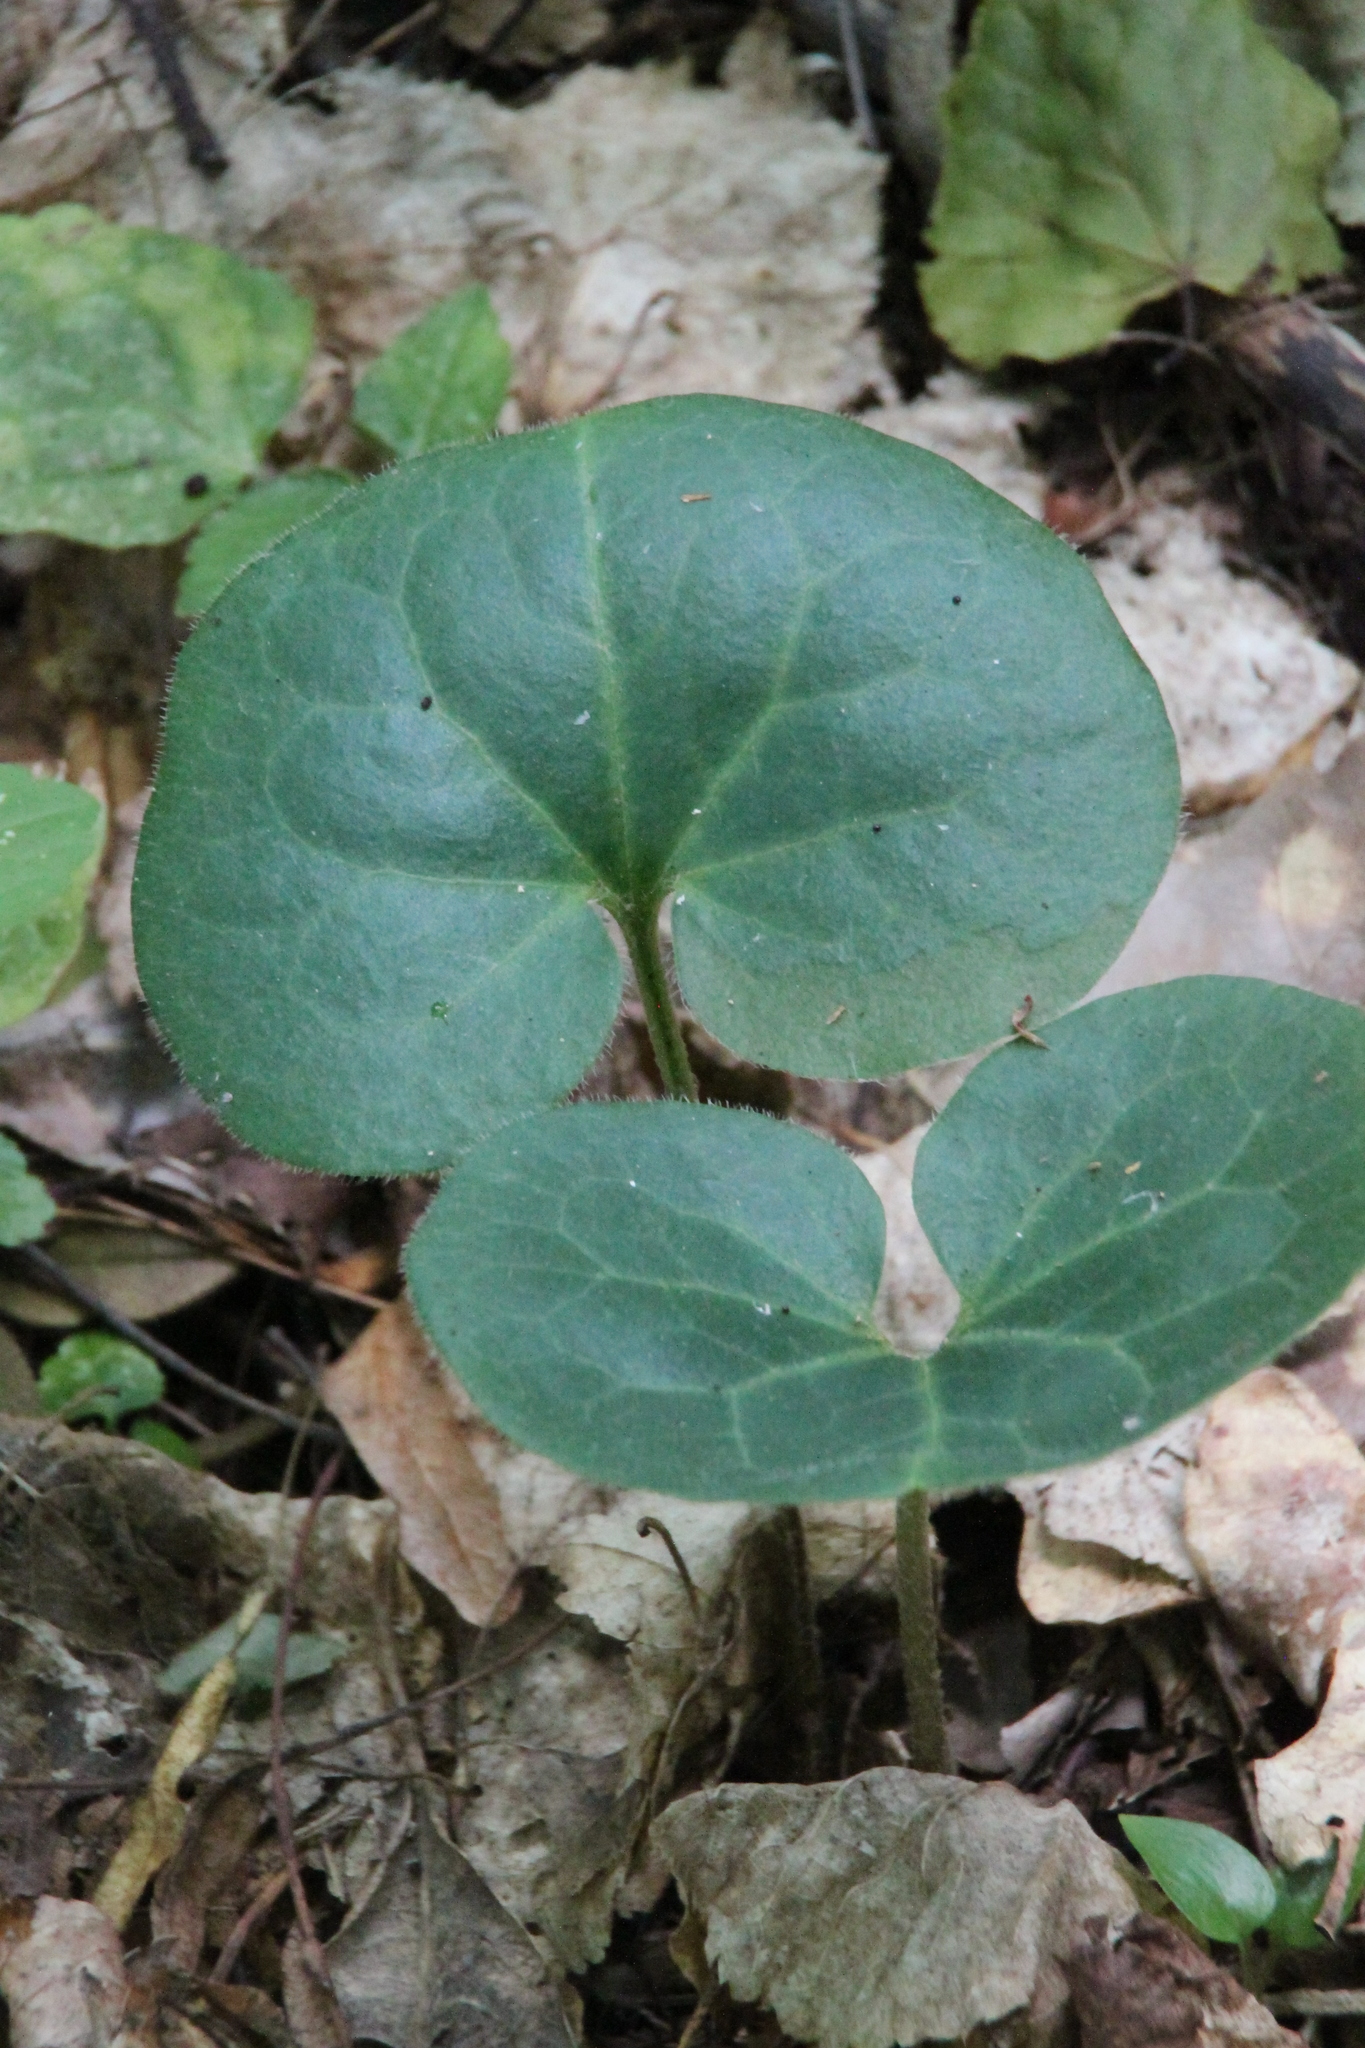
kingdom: Plantae
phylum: Tracheophyta
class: Magnoliopsida
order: Piperales
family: Aristolochiaceae
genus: Asarum
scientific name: Asarum europaeum
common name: Asarabacca
